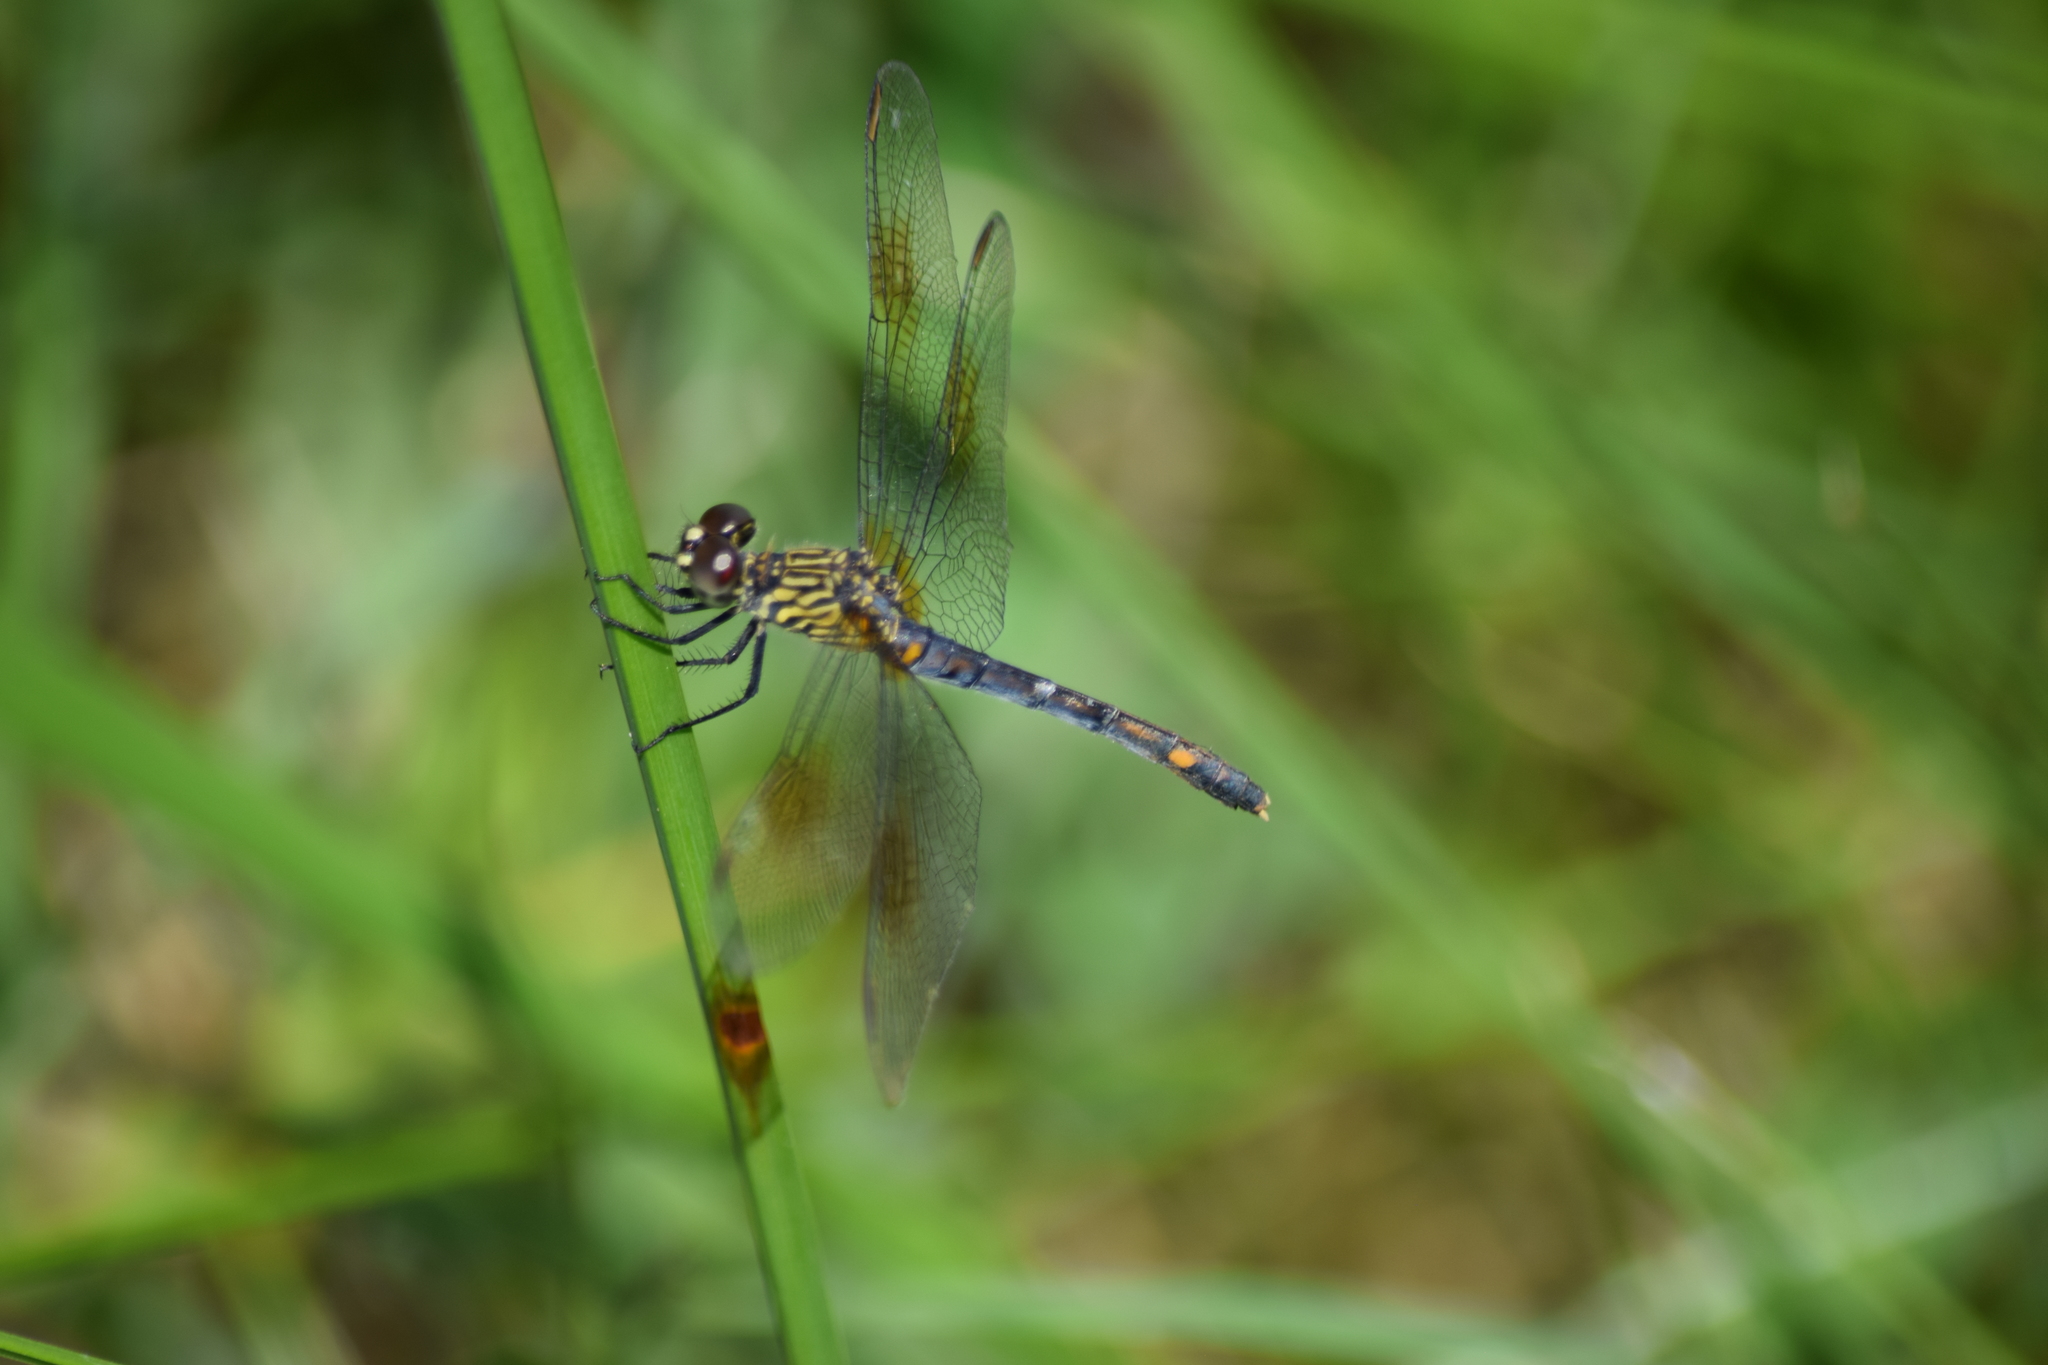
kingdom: Animalia
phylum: Arthropoda
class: Insecta
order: Odonata
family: Libellulidae
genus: Erythrodiplax
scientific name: Erythrodiplax berenice
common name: Seaside dragonlet
